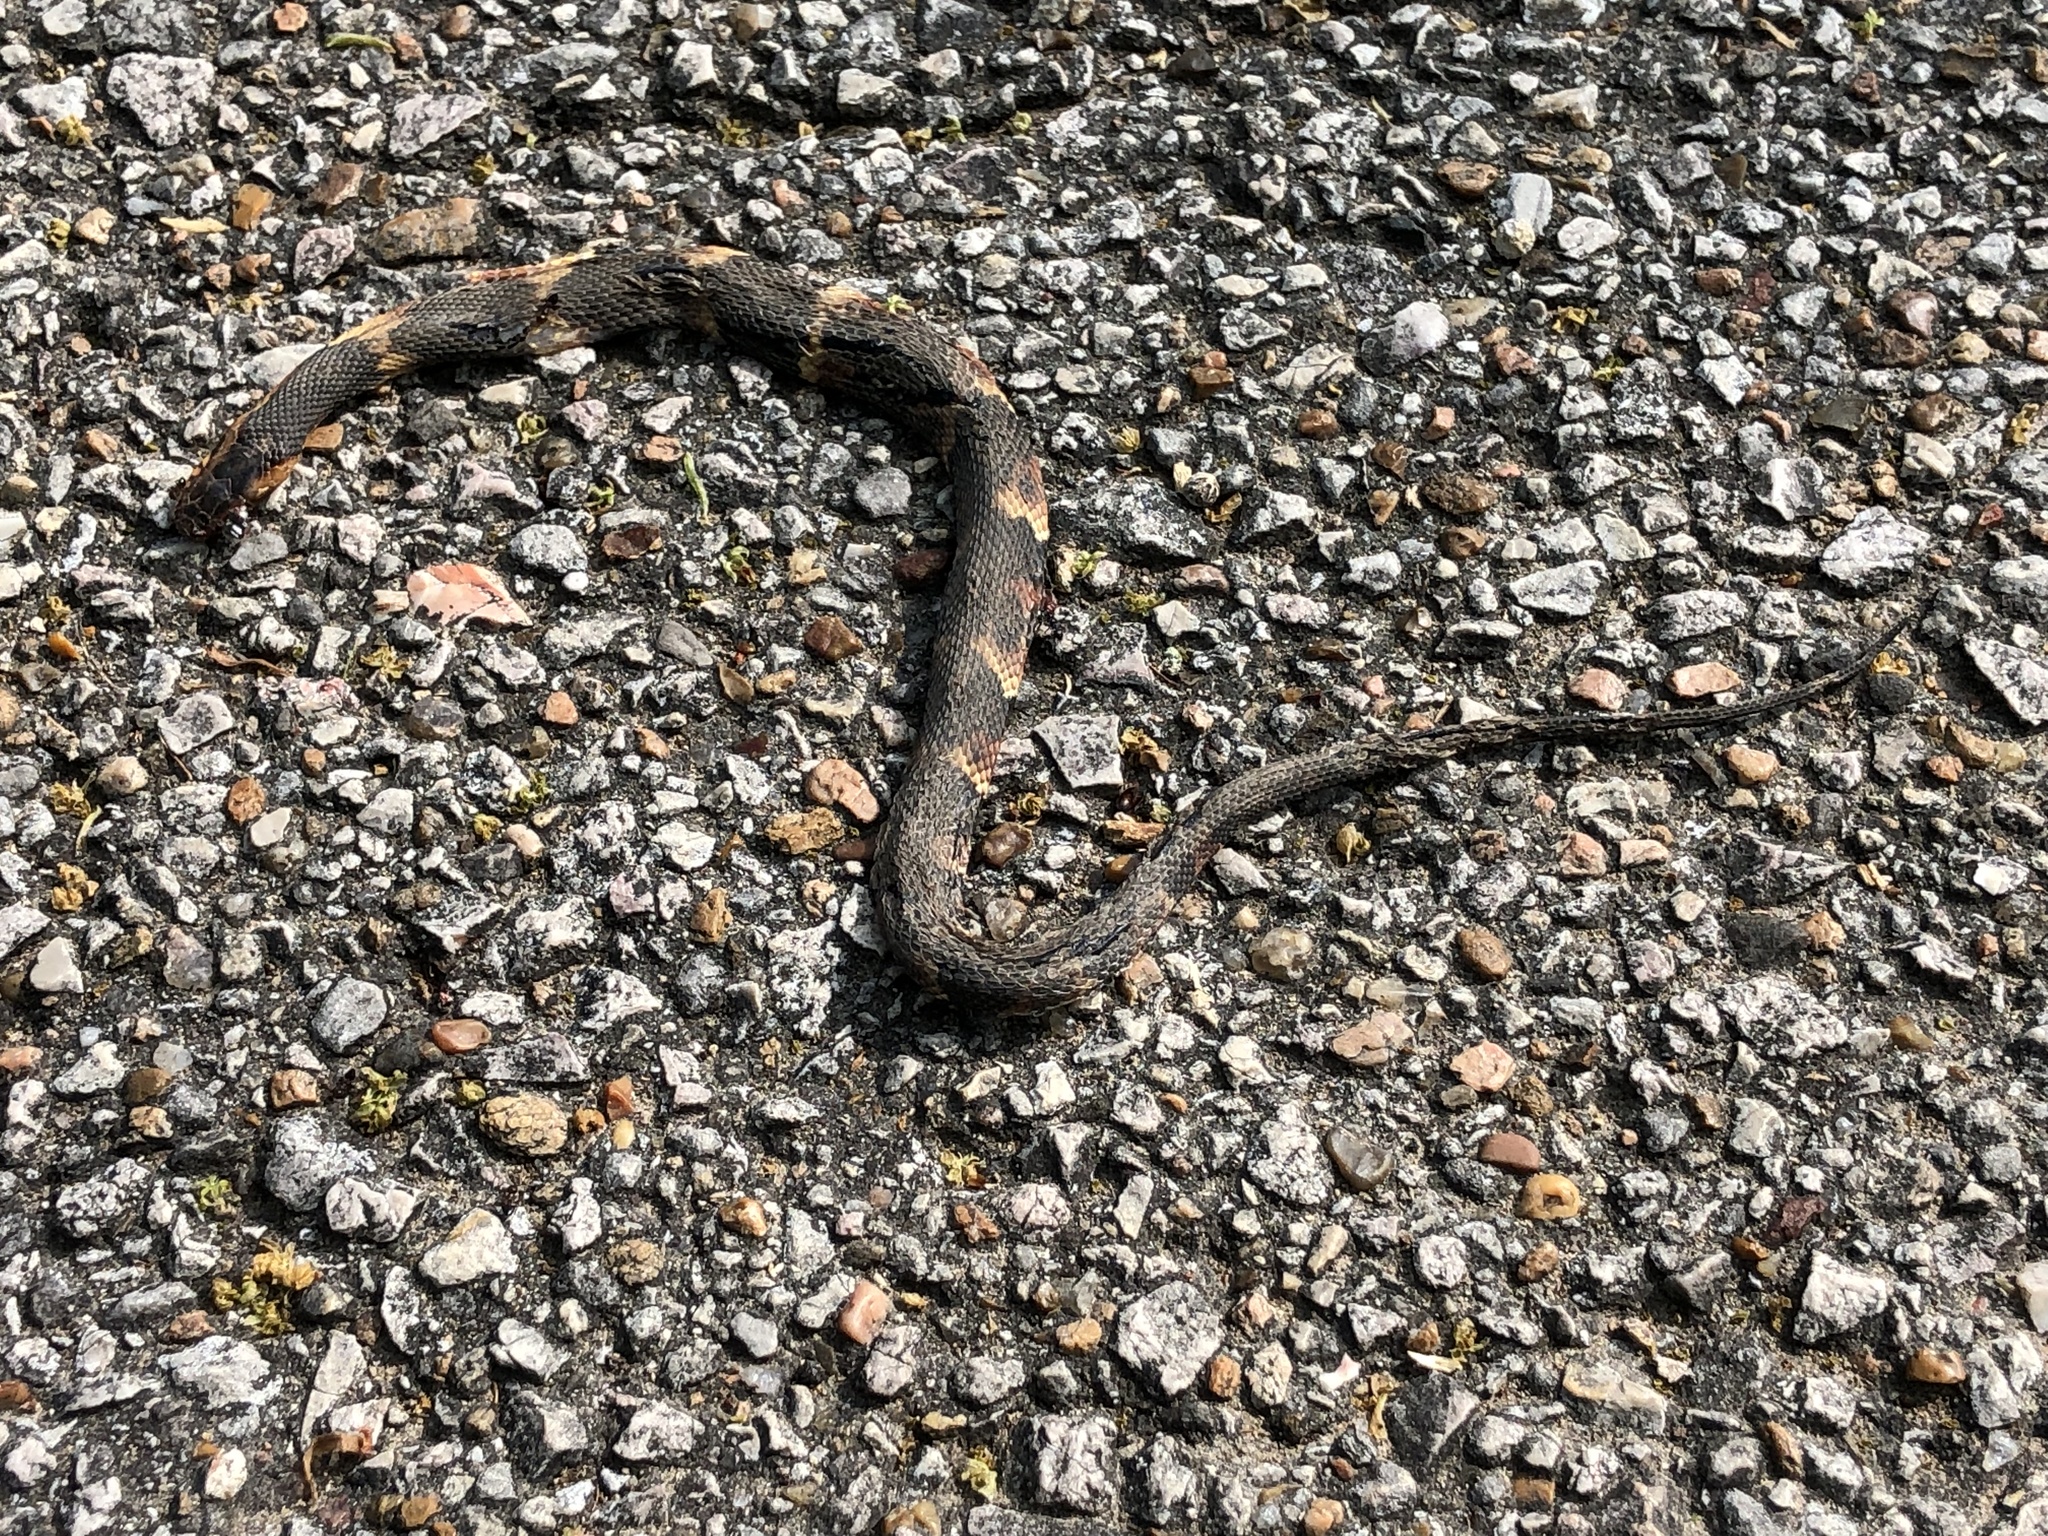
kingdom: Animalia
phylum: Chordata
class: Squamata
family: Colubridae
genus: Nerodia
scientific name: Nerodia fasciata
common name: Southern water snake
